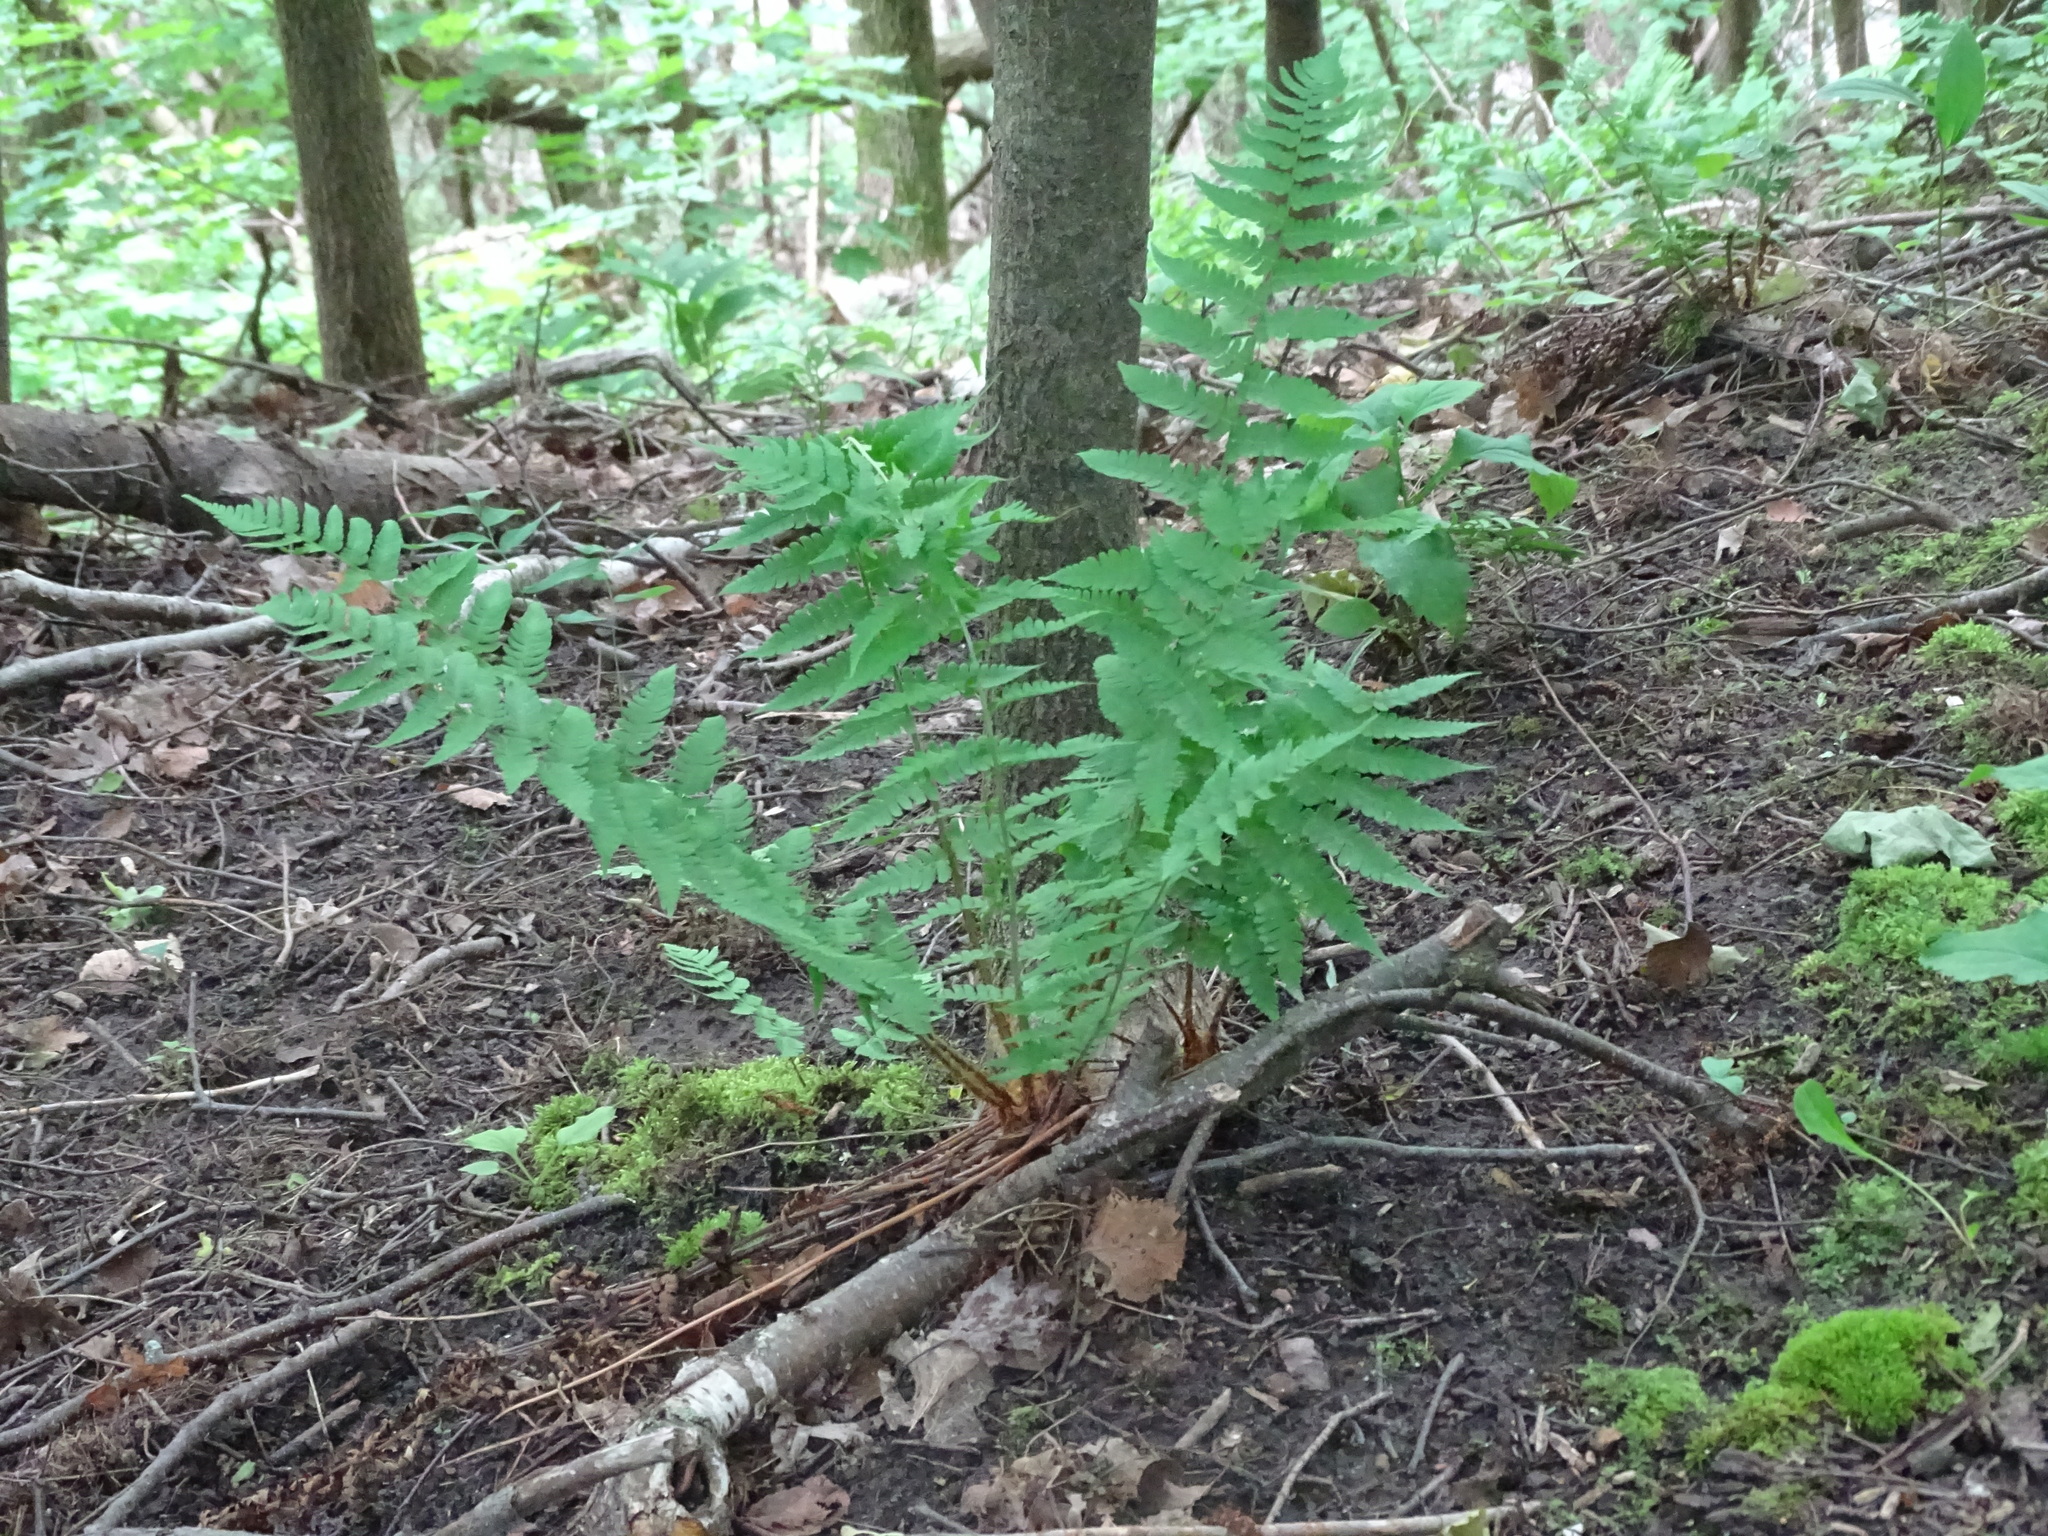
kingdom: Plantae
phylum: Tracheophyta
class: Polypodiopsida
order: Polypodiales
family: Dryopteridaceae
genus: Dryopteris
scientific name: Dryopteris marginalis
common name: Marginal wood fern
